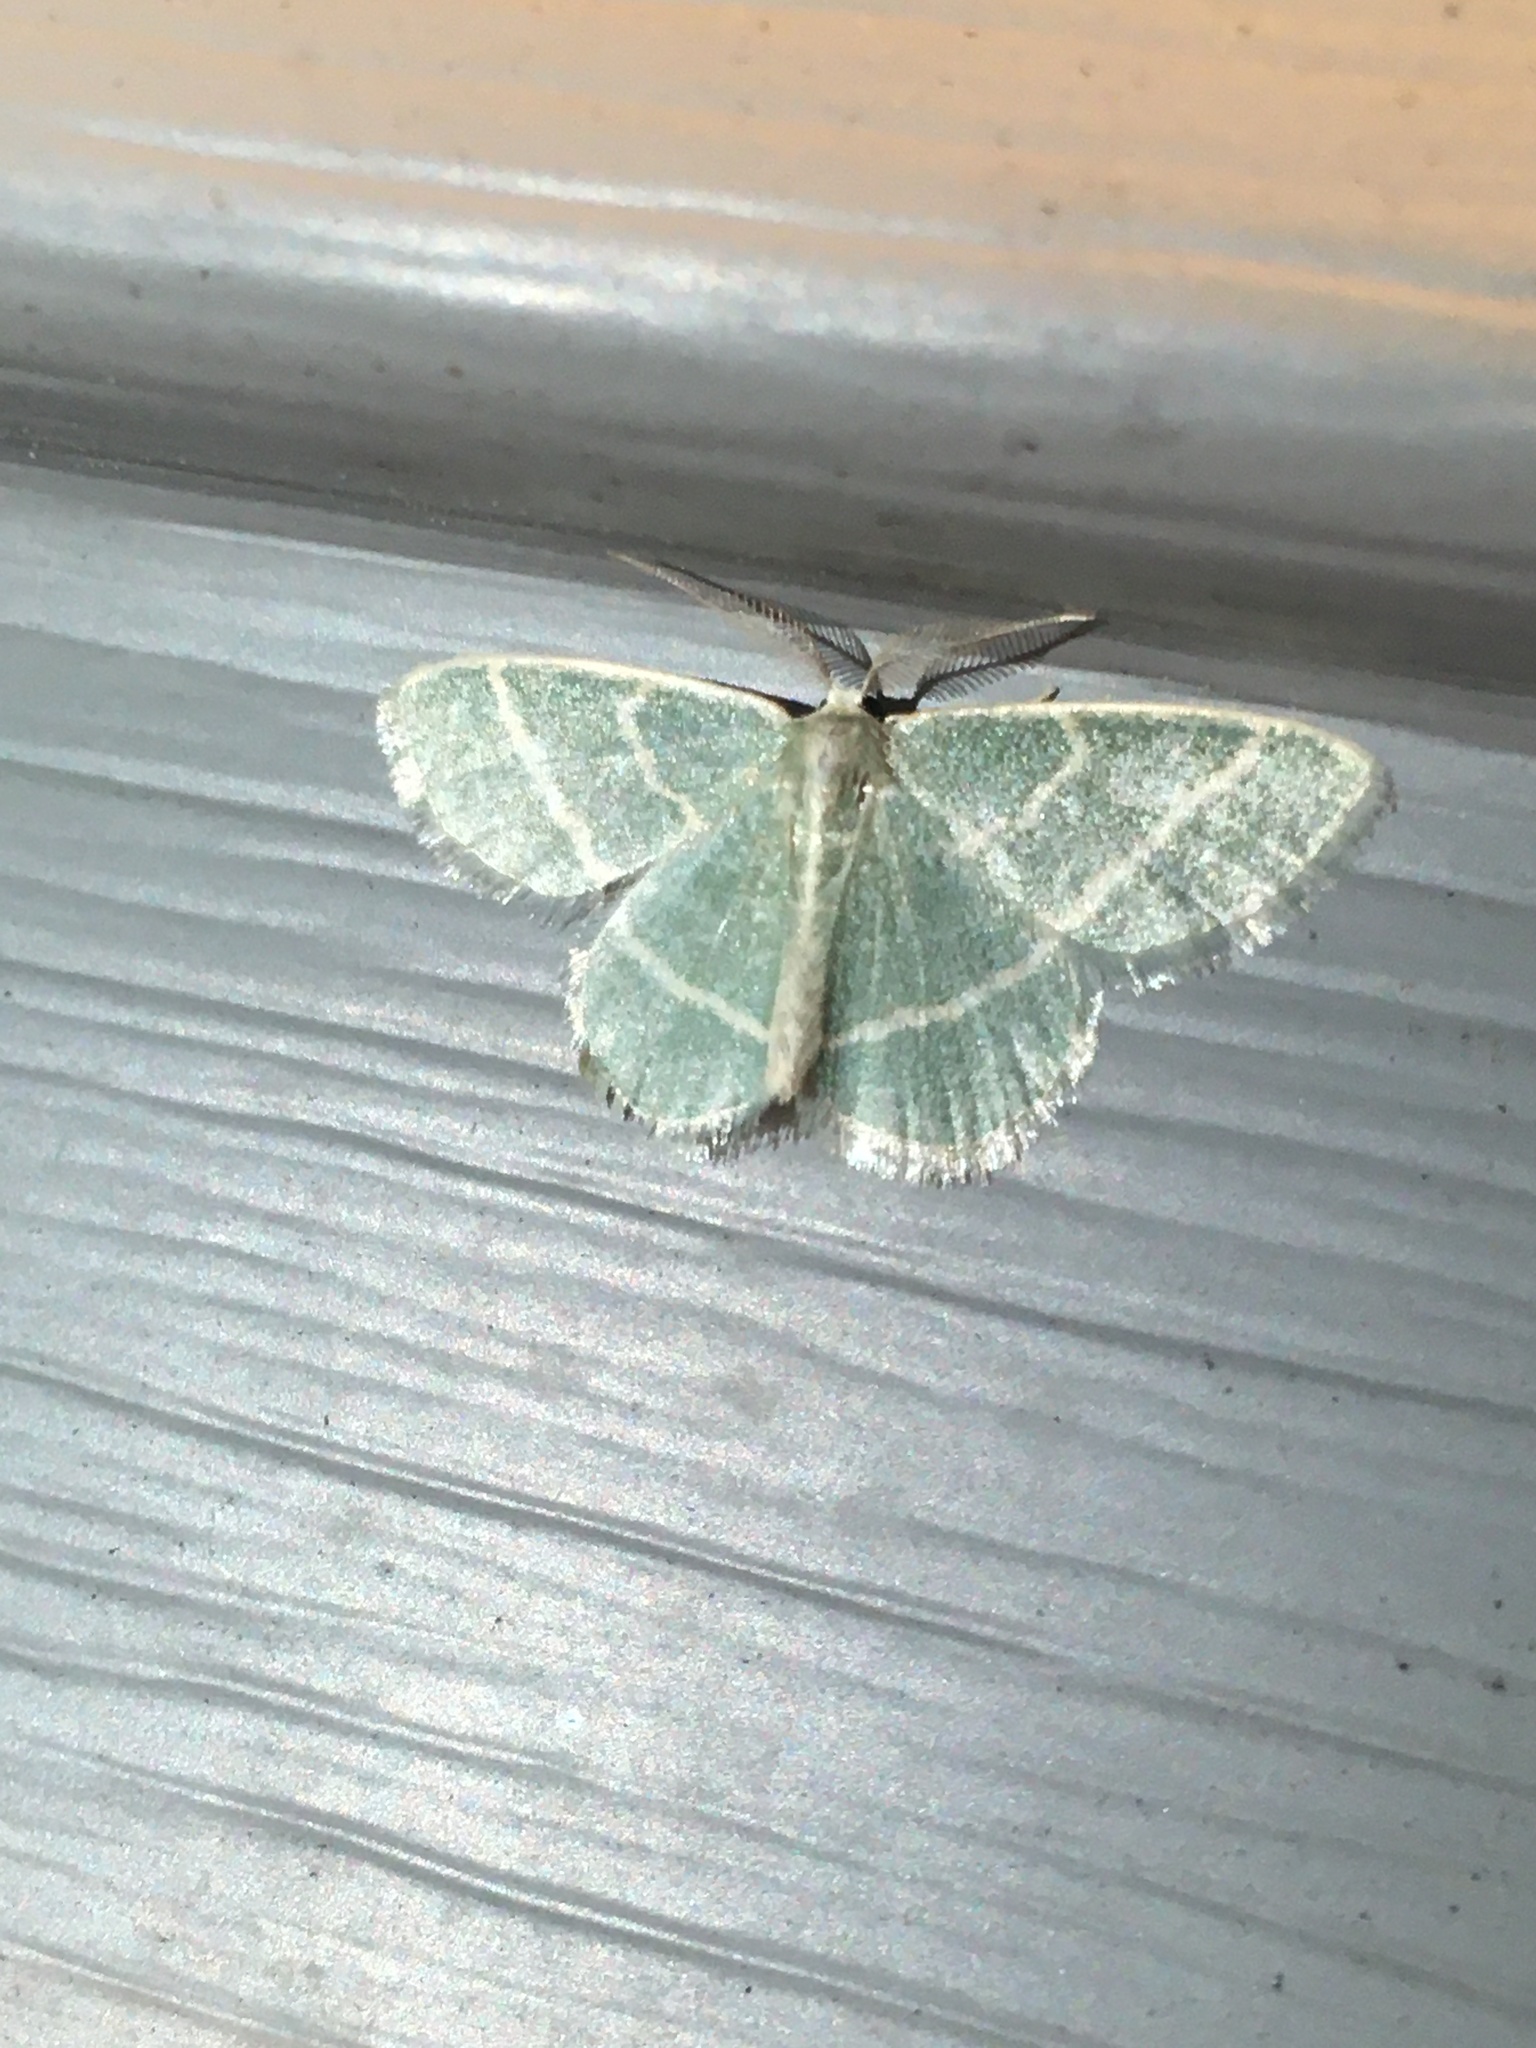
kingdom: Animalia
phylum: Arthropoda
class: Insecta
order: Lepidoptera
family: Geometridae
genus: Chlorochlamys
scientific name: Chlorochlamys chloroleucaria
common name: Blackberry looper
